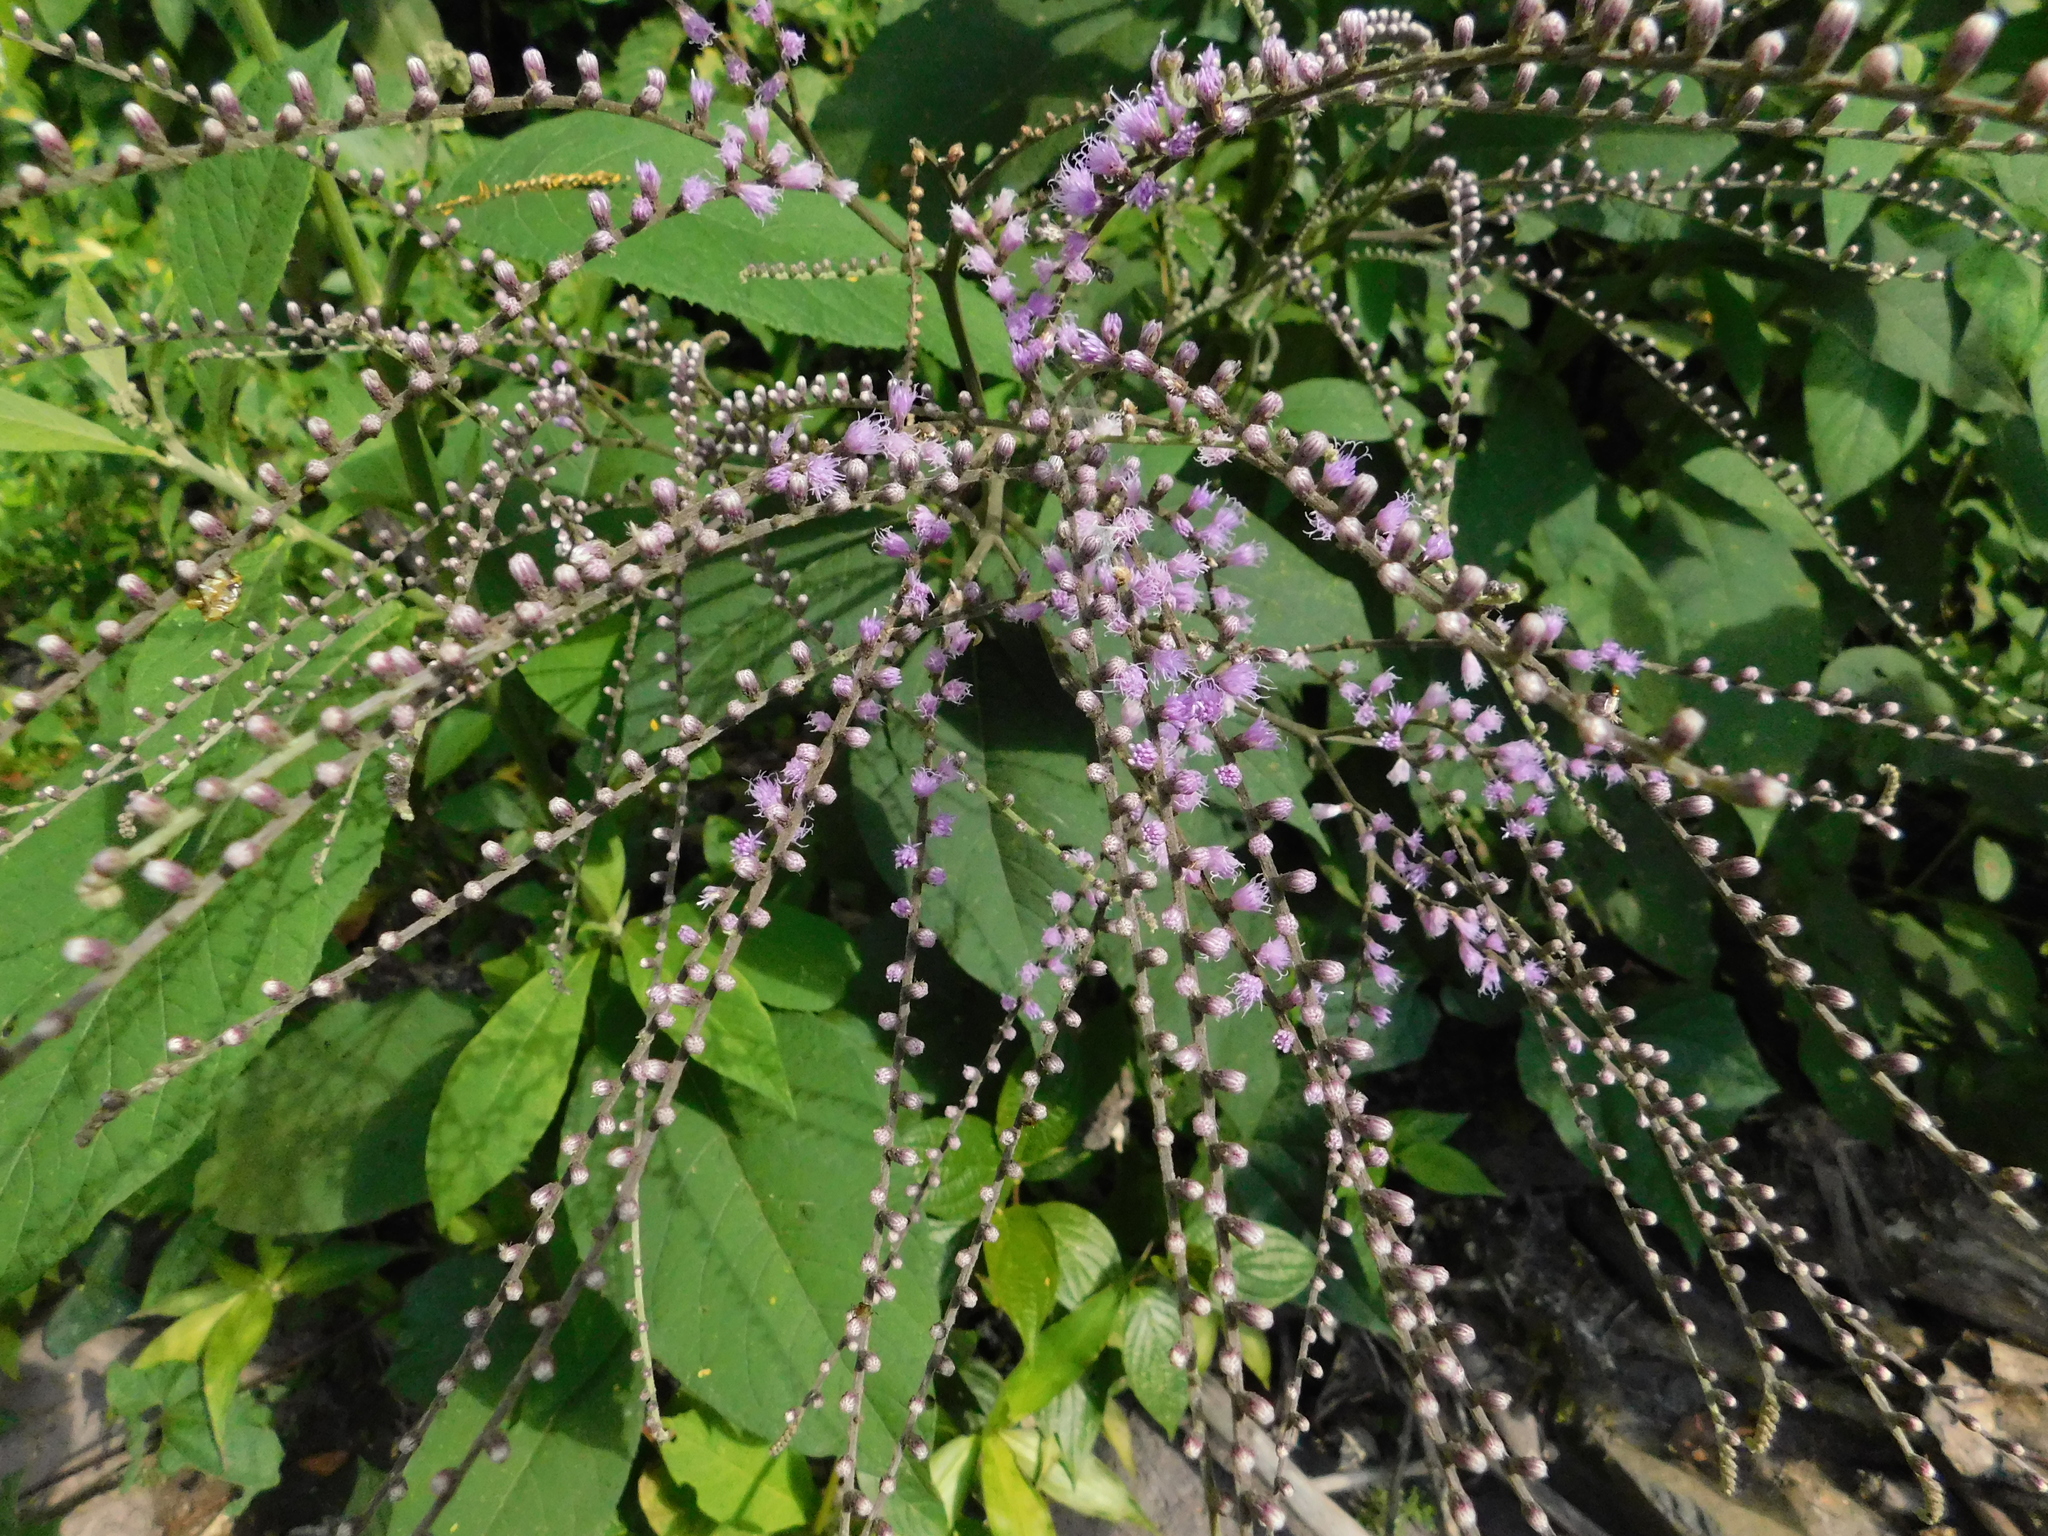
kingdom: Plantae
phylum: Tracheophyta
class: Magnoliopsida
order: Asterales
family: Asteraceae
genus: Eirmocephala
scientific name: Eirmocephala brachiata
